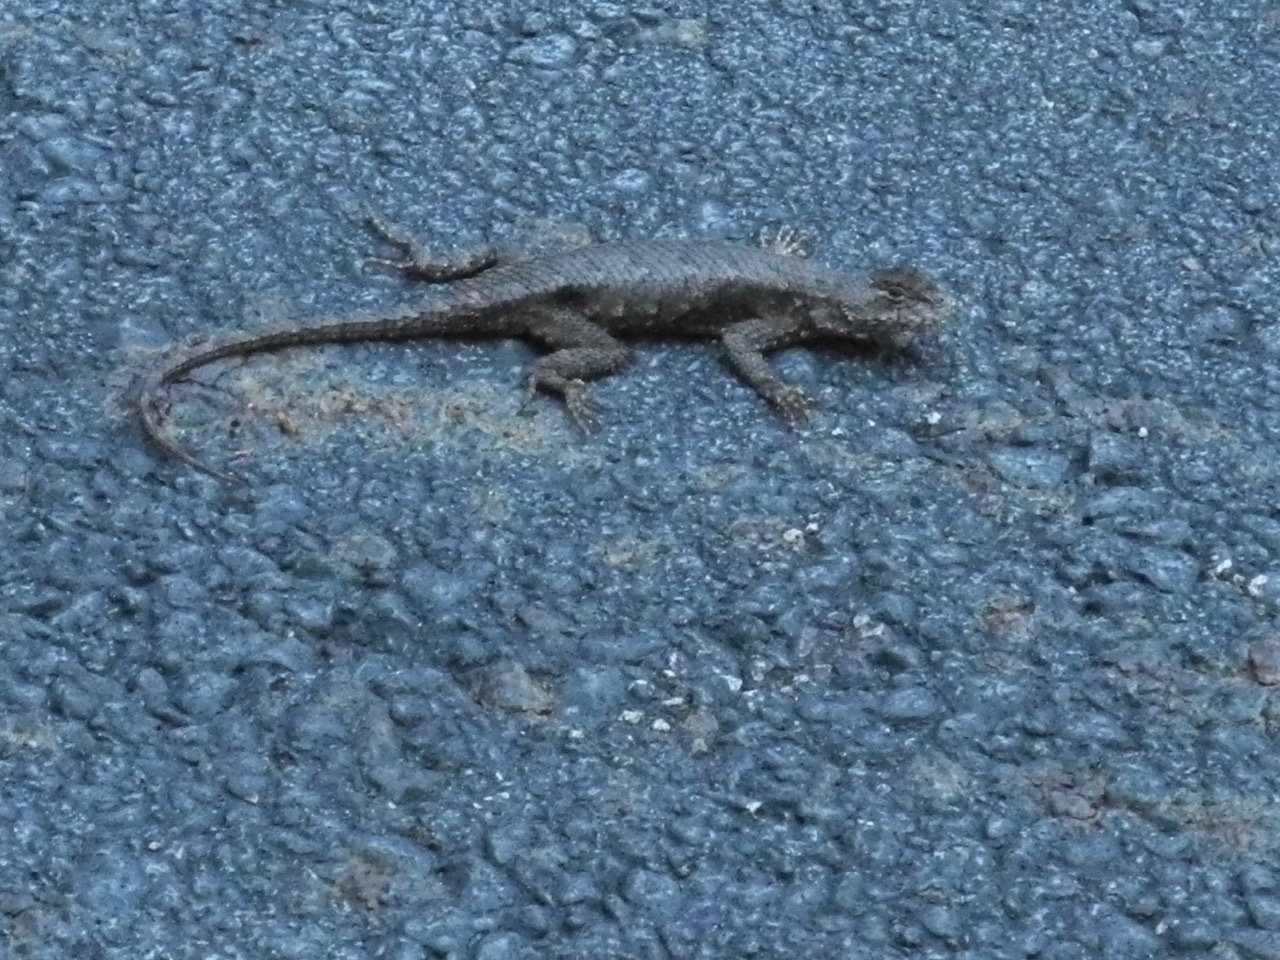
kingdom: Animalia
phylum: Chordata
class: Squamata
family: Phrynosomatidae
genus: Sceloporus
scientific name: Sceloporus undulatus
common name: Eastern fence lizard
